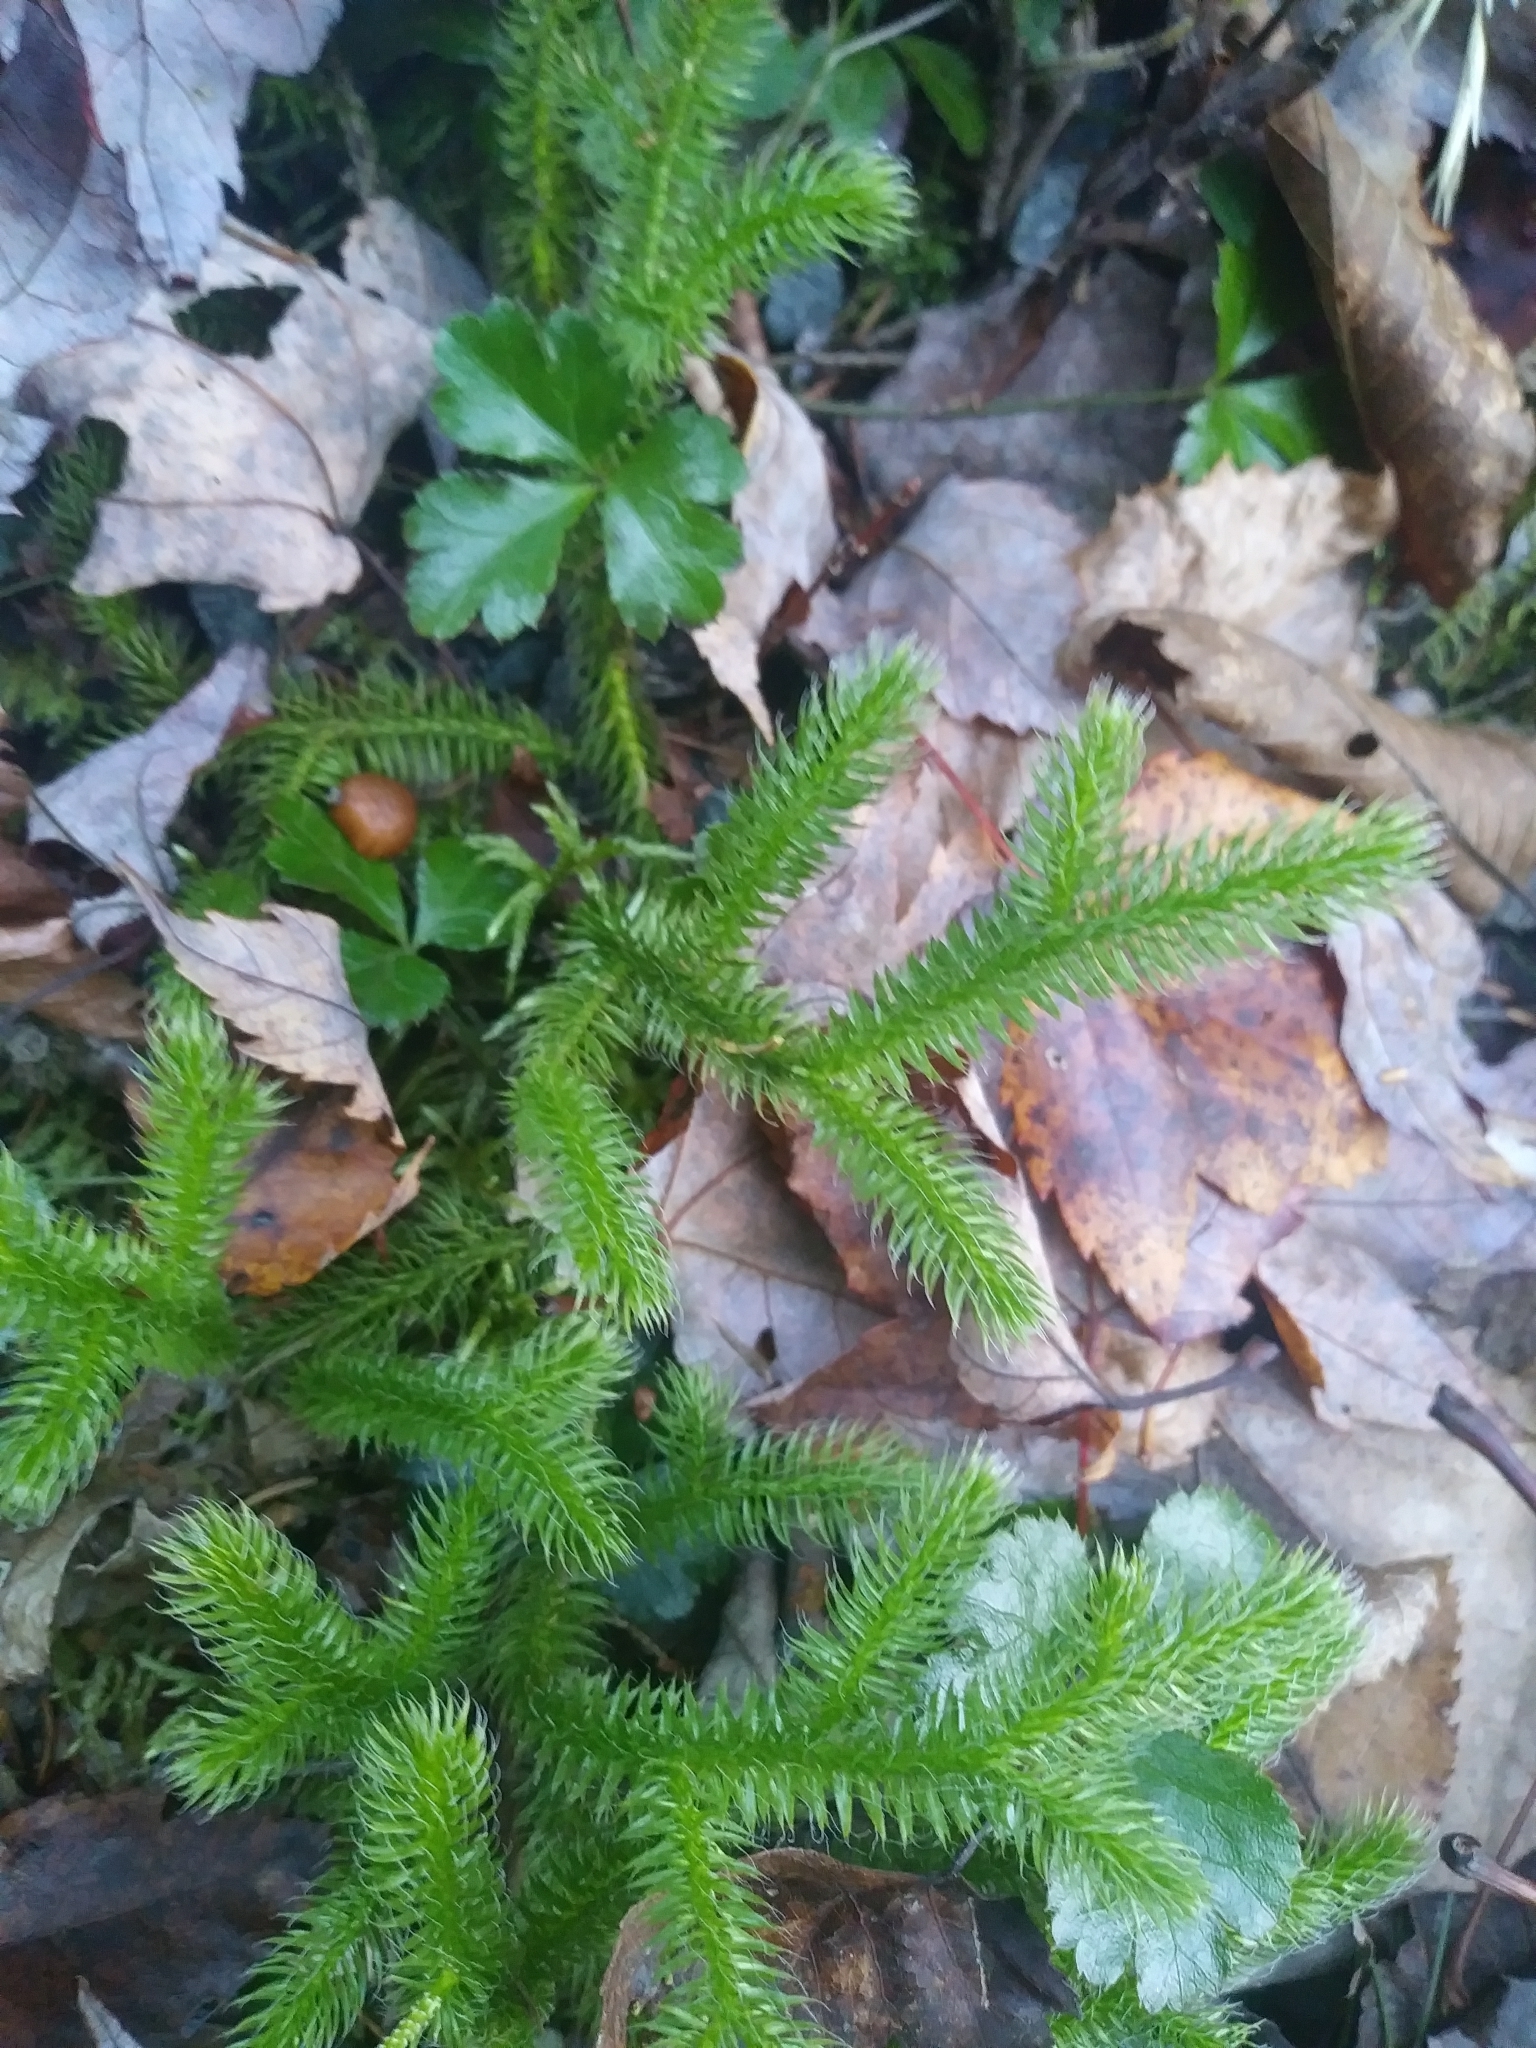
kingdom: Plantae
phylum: Tracheophyta
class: Lycopodiopsida
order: Lycopodiales
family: Lycopodiaceae
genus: Lycopodium
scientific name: Lycopodium clavatum
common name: Stag's-horn clubmoss
